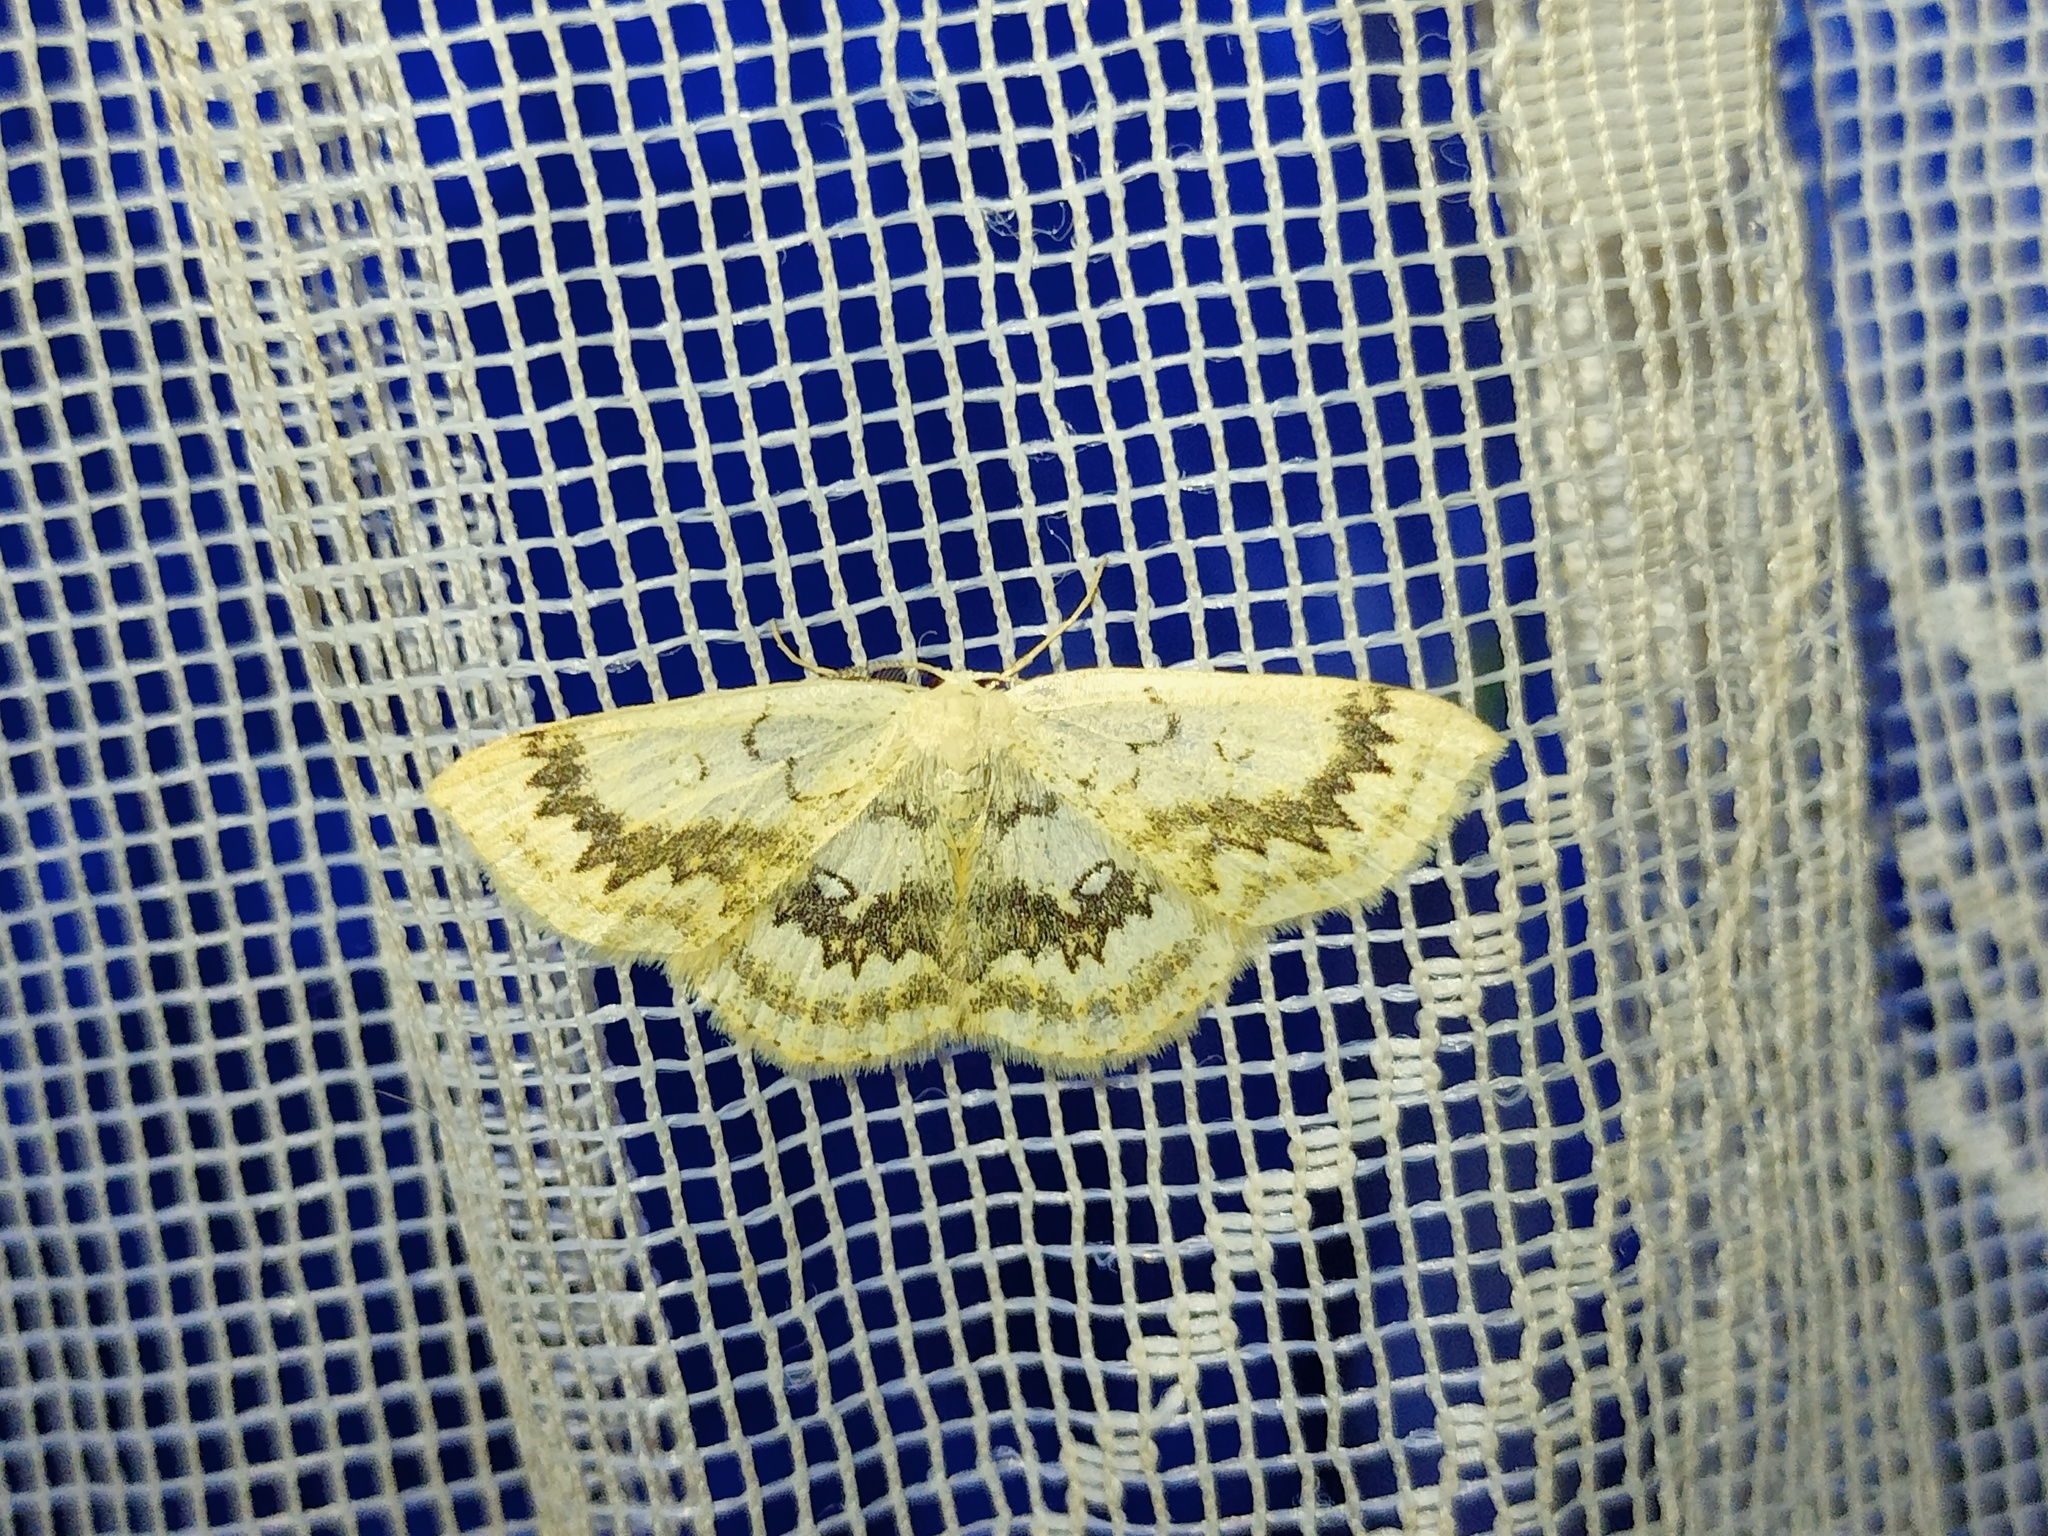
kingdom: Animalia
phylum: Arthropoda
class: Insecta
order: Lepidoptera
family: Geometridae
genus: Cyclophora
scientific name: Cyclophora annularia
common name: Mocha
